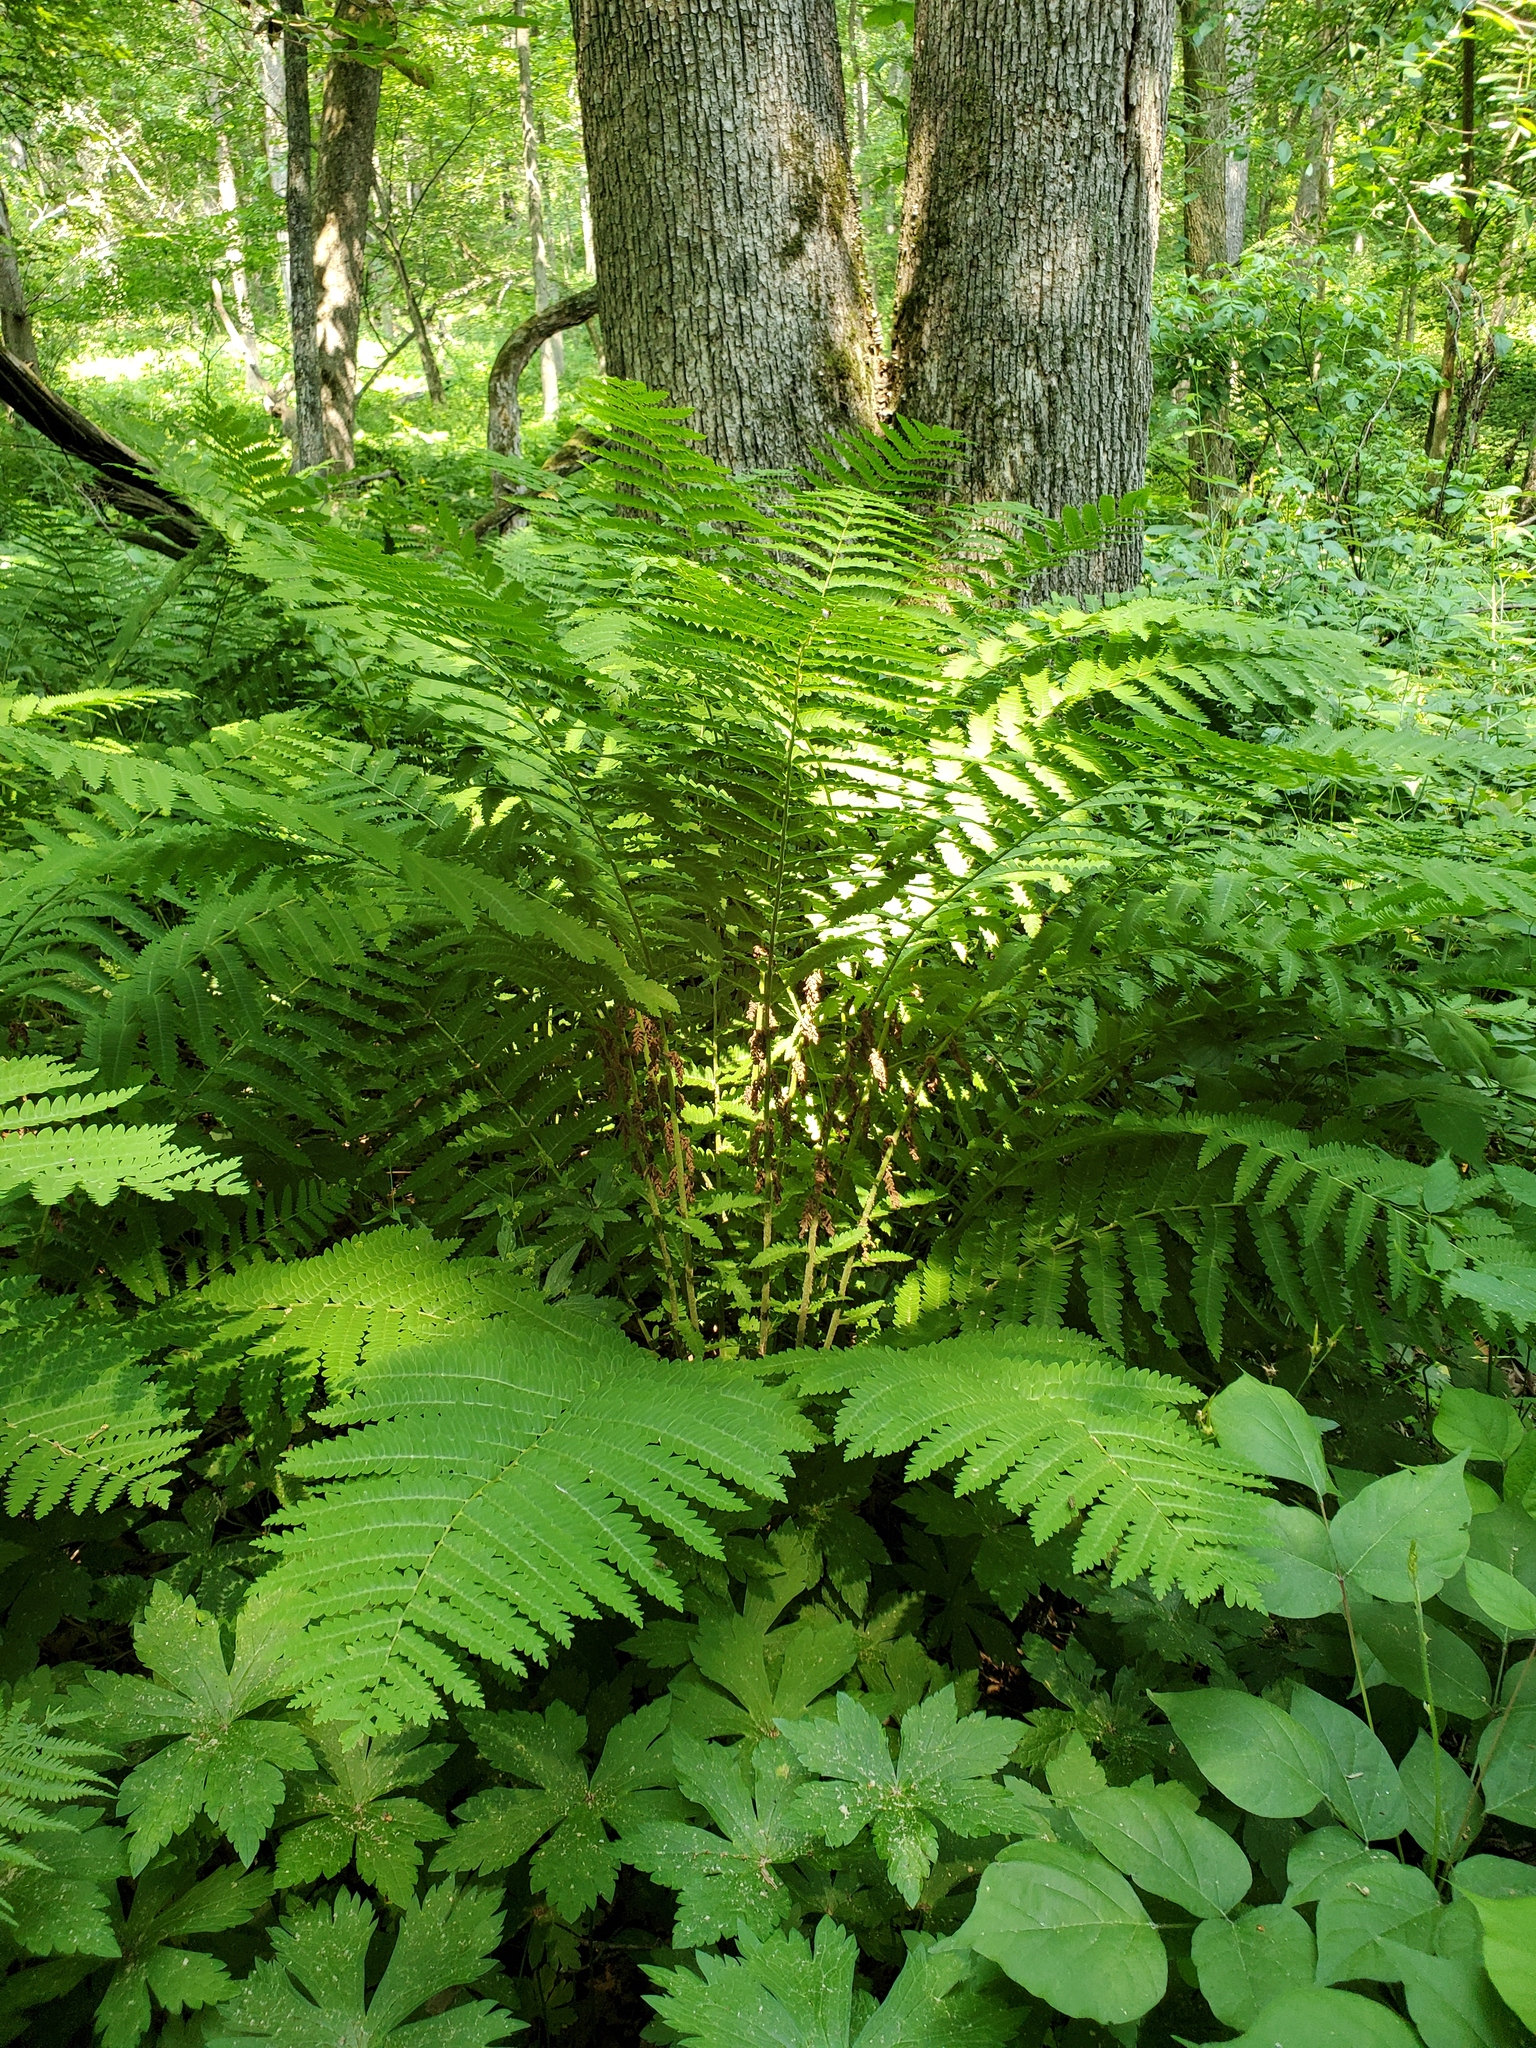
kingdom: Plantae
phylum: Tracheophyta
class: Polypodiopsida
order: Osmundales
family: Osmundaceae
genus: Claytosmunda
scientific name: Claytosmunda claytoniana
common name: Clayton's fern
